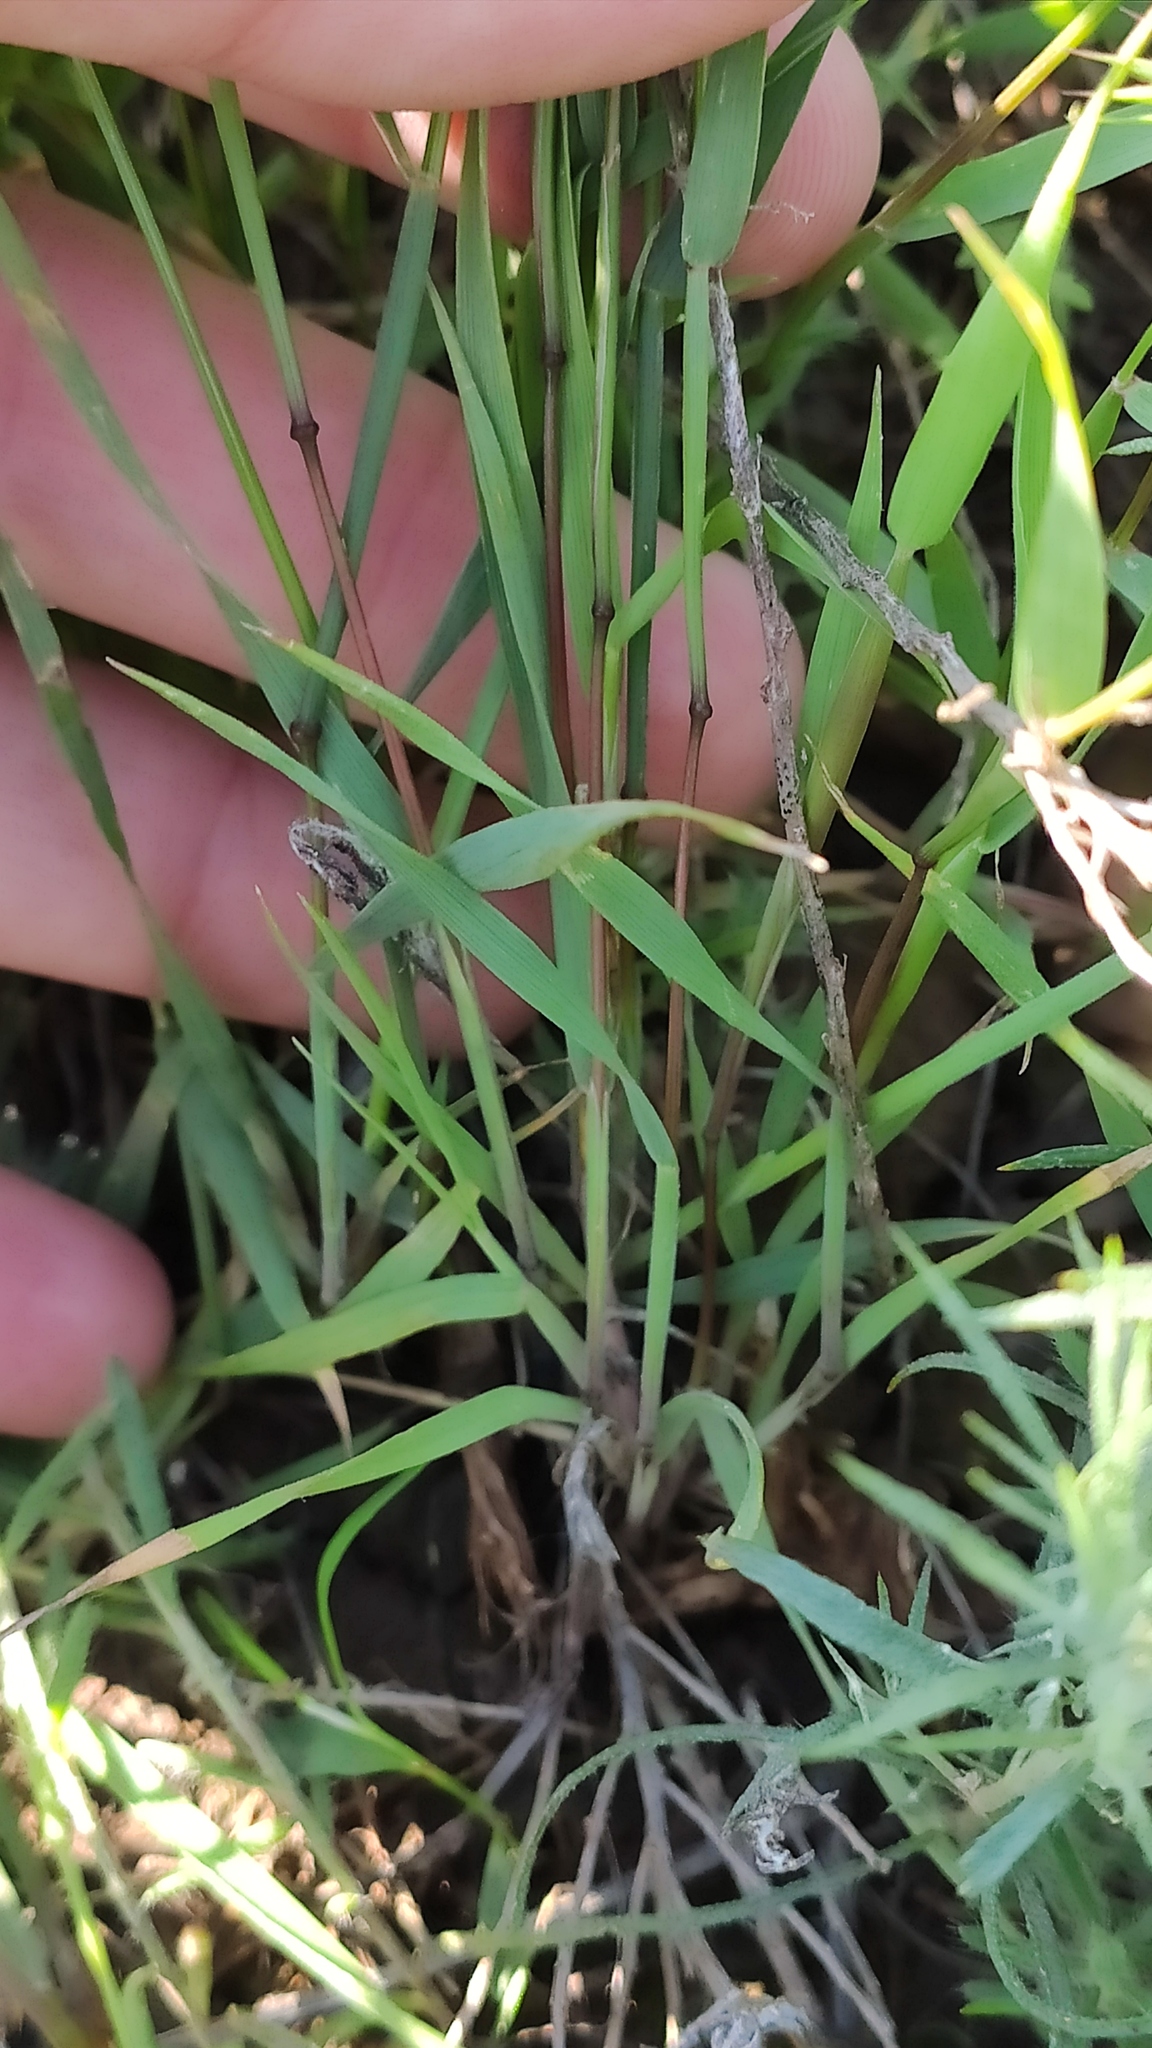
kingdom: Plantae
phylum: Tracheophyta
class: Liliopsida
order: Poales
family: Poaceae
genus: Eremopyrum
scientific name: Eremopyrum orientale
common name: Oriental false wheatgrass
